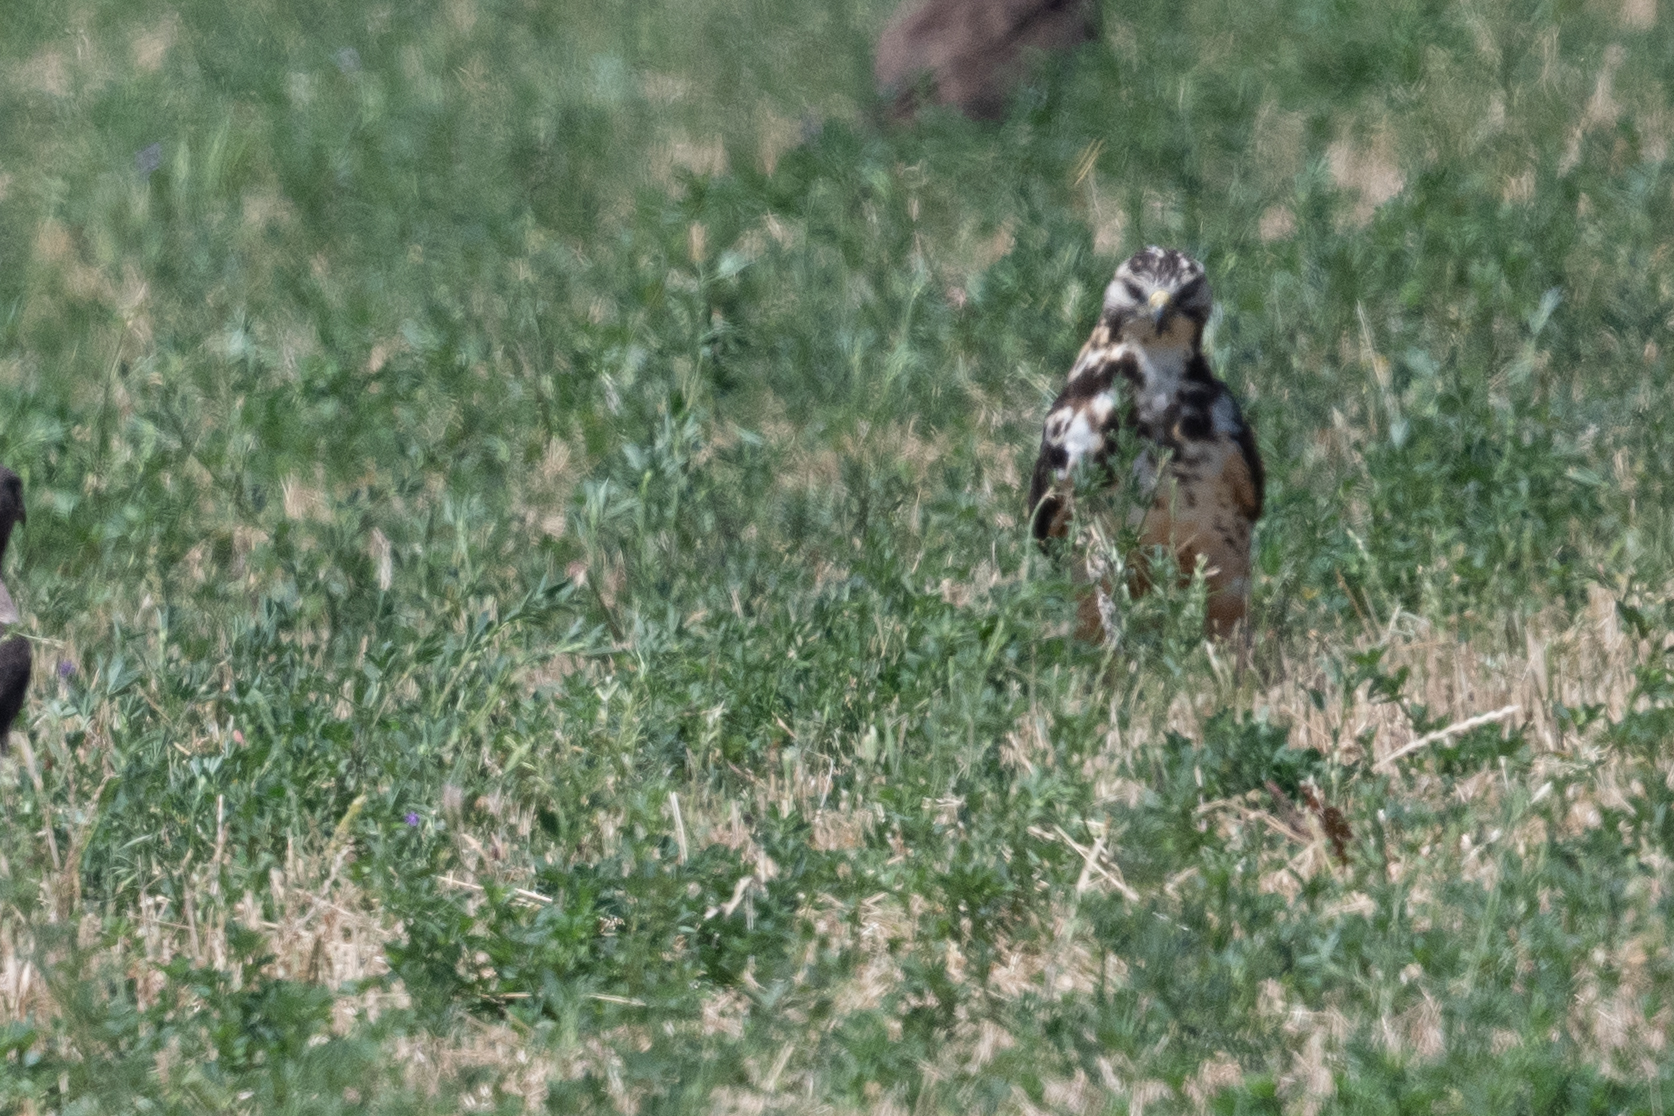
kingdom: Animalia
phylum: Chordata
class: Aves
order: Accipitriformes
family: Accipitridae
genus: Buteo
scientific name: Buteo swainsoni
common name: Swainson's hawk
